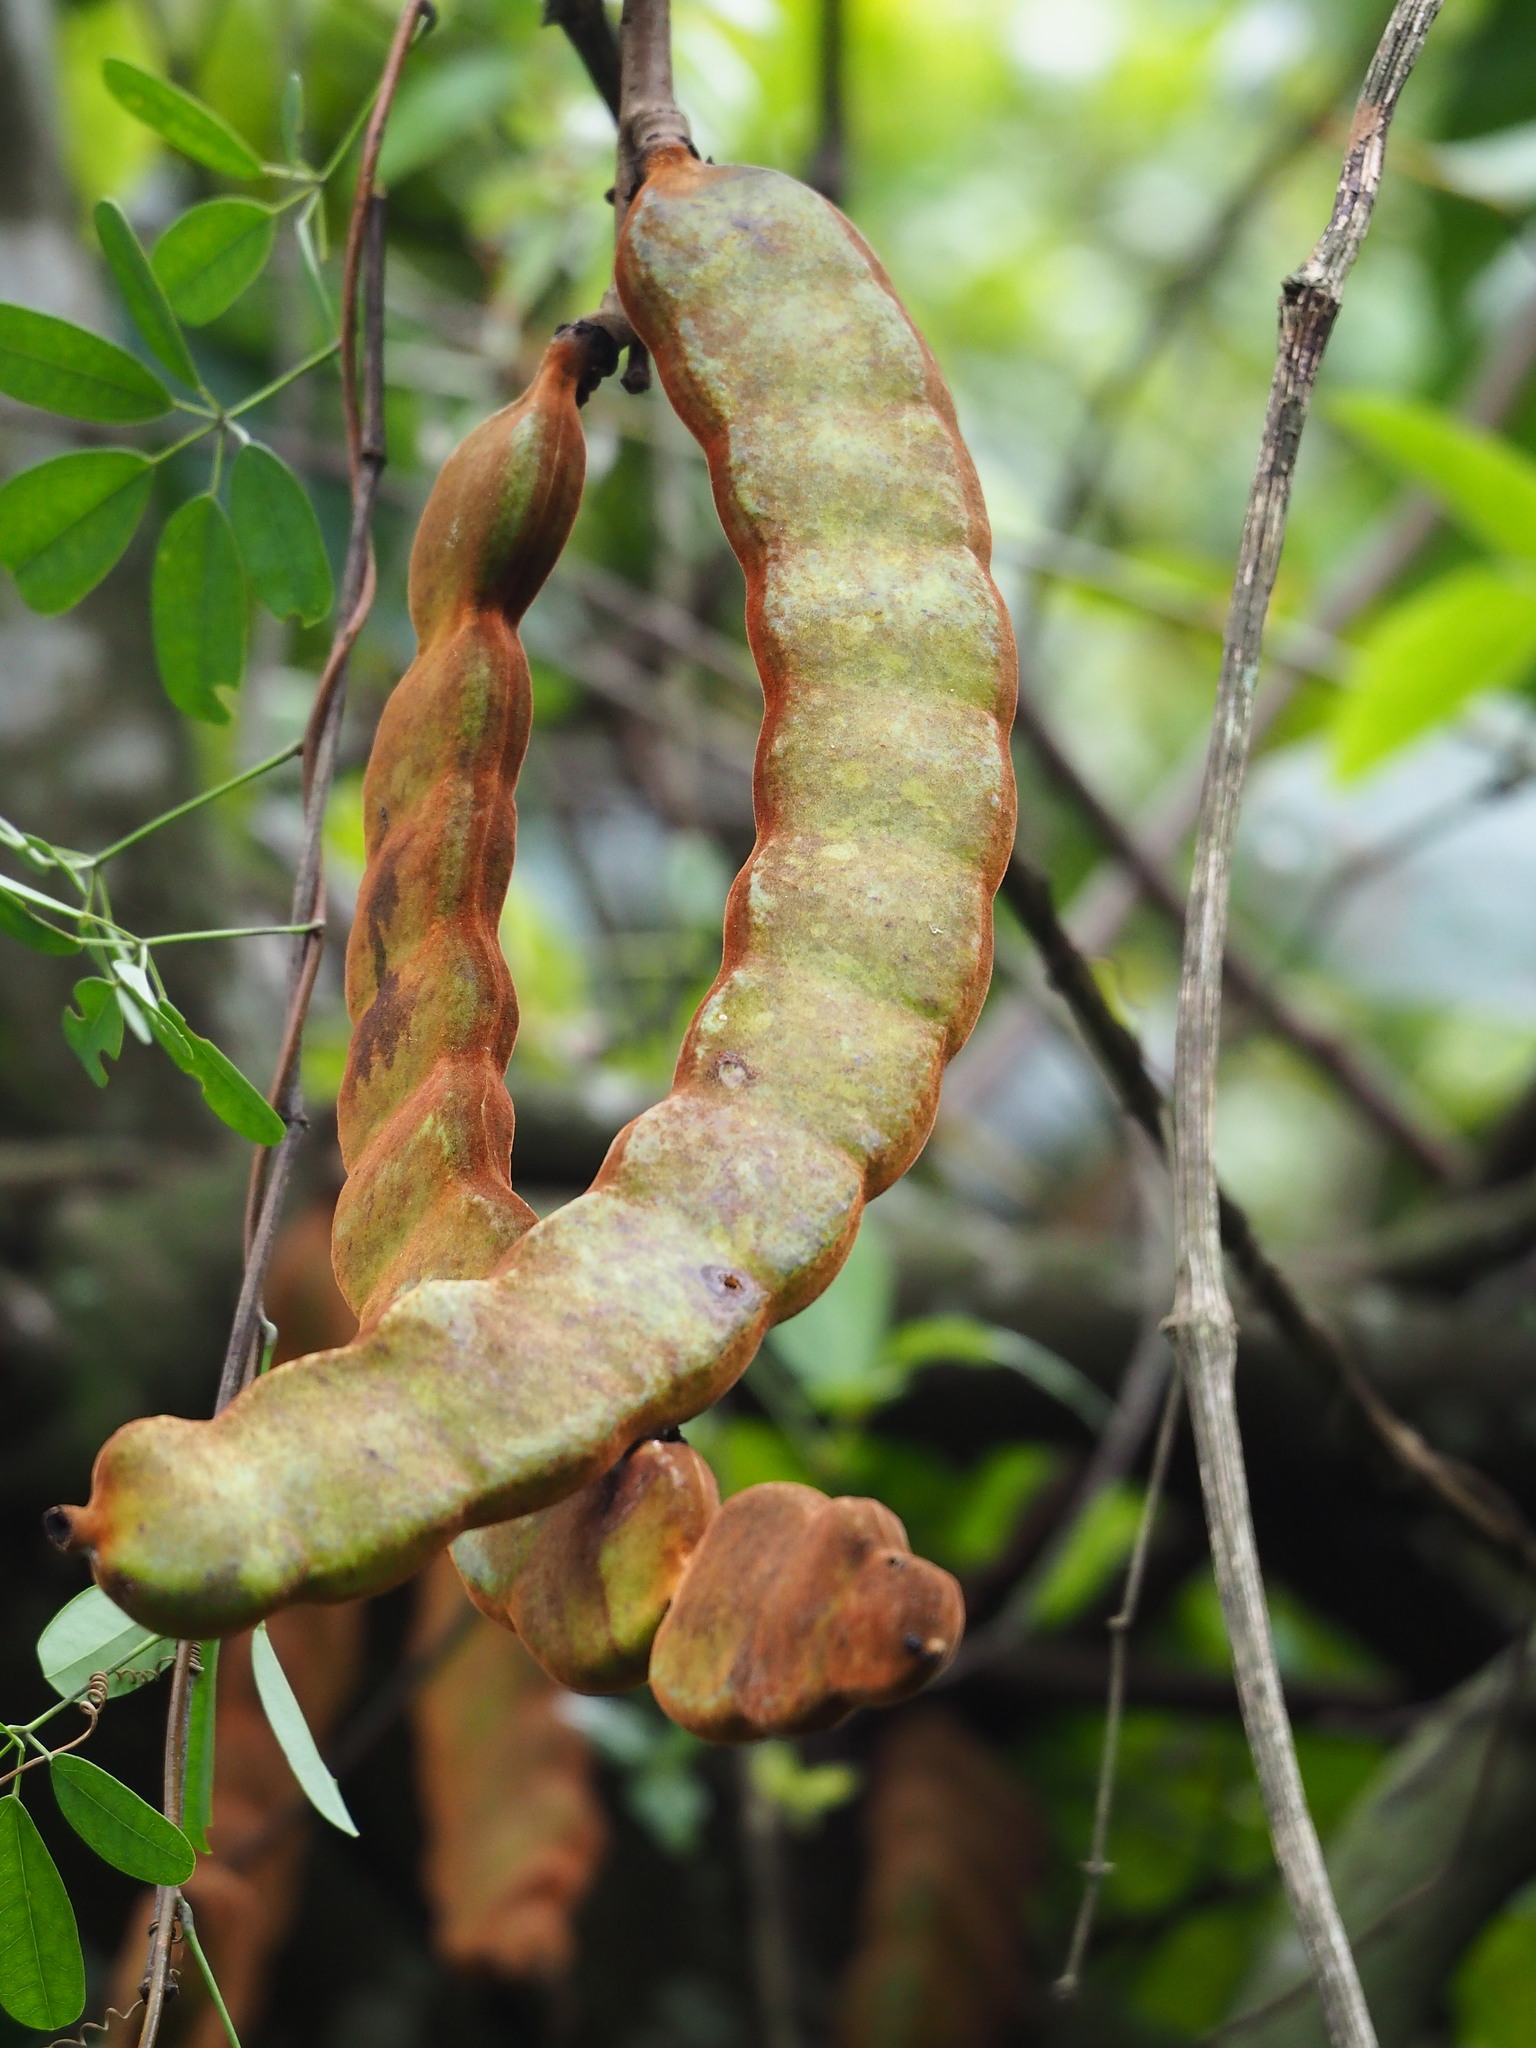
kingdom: Plantae
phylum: Tracheophyta
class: Magnoliopsida
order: Fabales
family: Fabaceae
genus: Mucuna
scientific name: Mucuna macrocarpa
